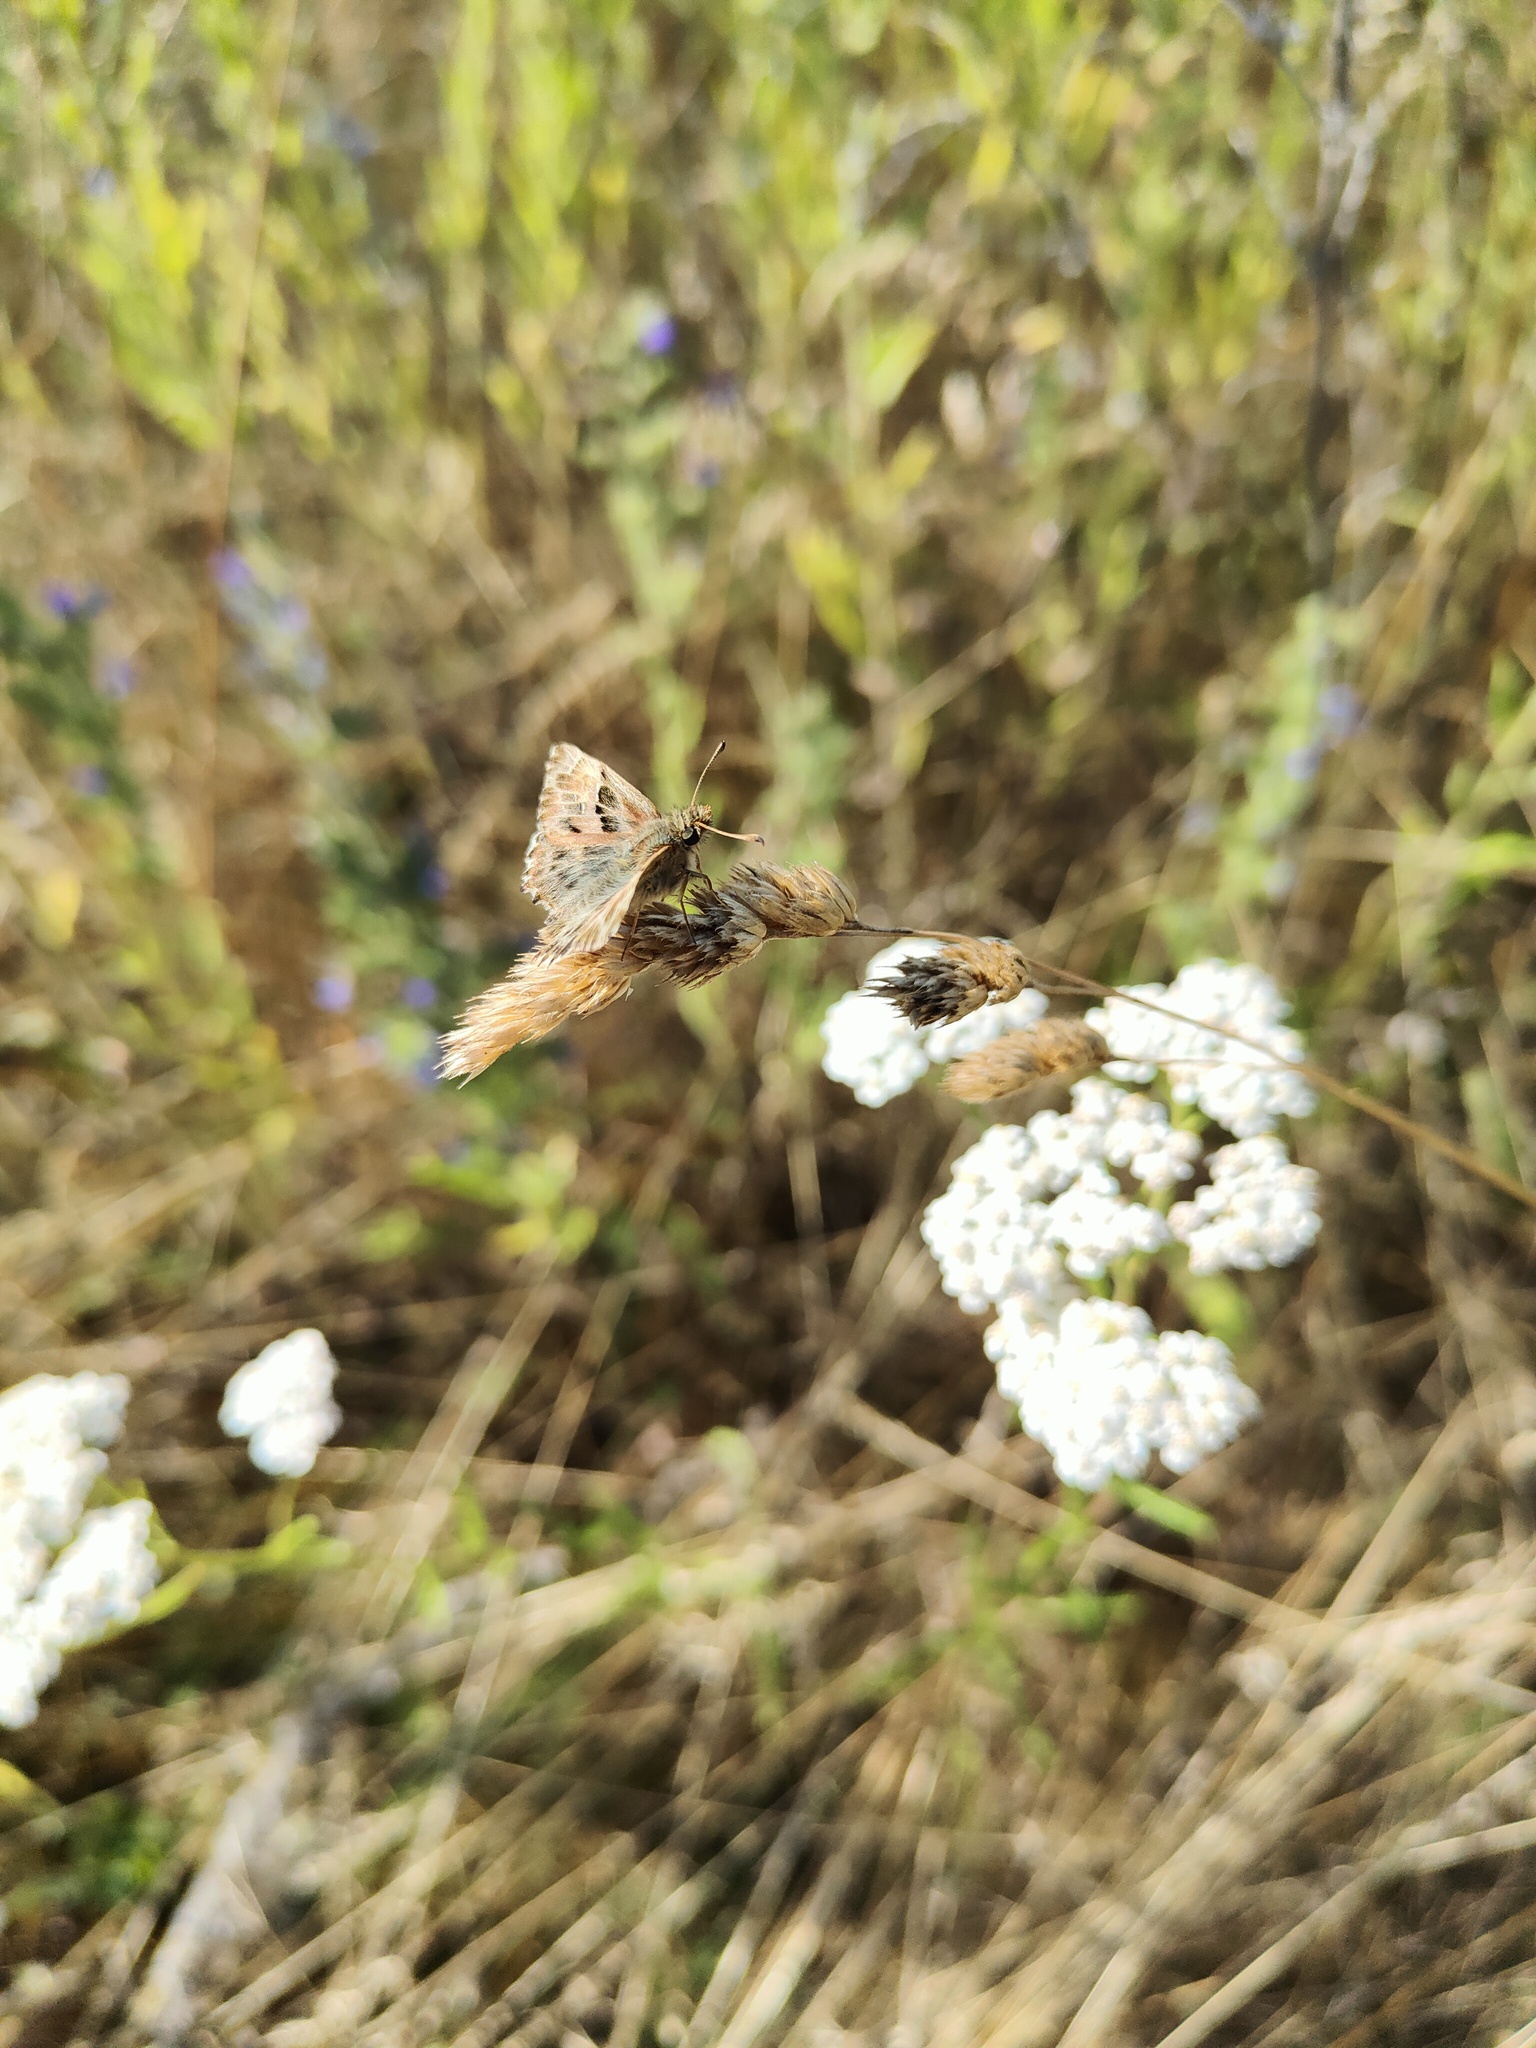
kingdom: Animalia
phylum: Arthropoda
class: Insecta
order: Lepidoptera
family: Hesperiidae
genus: Carcharodus
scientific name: Carcharodus alceae
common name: Mallow skipper
